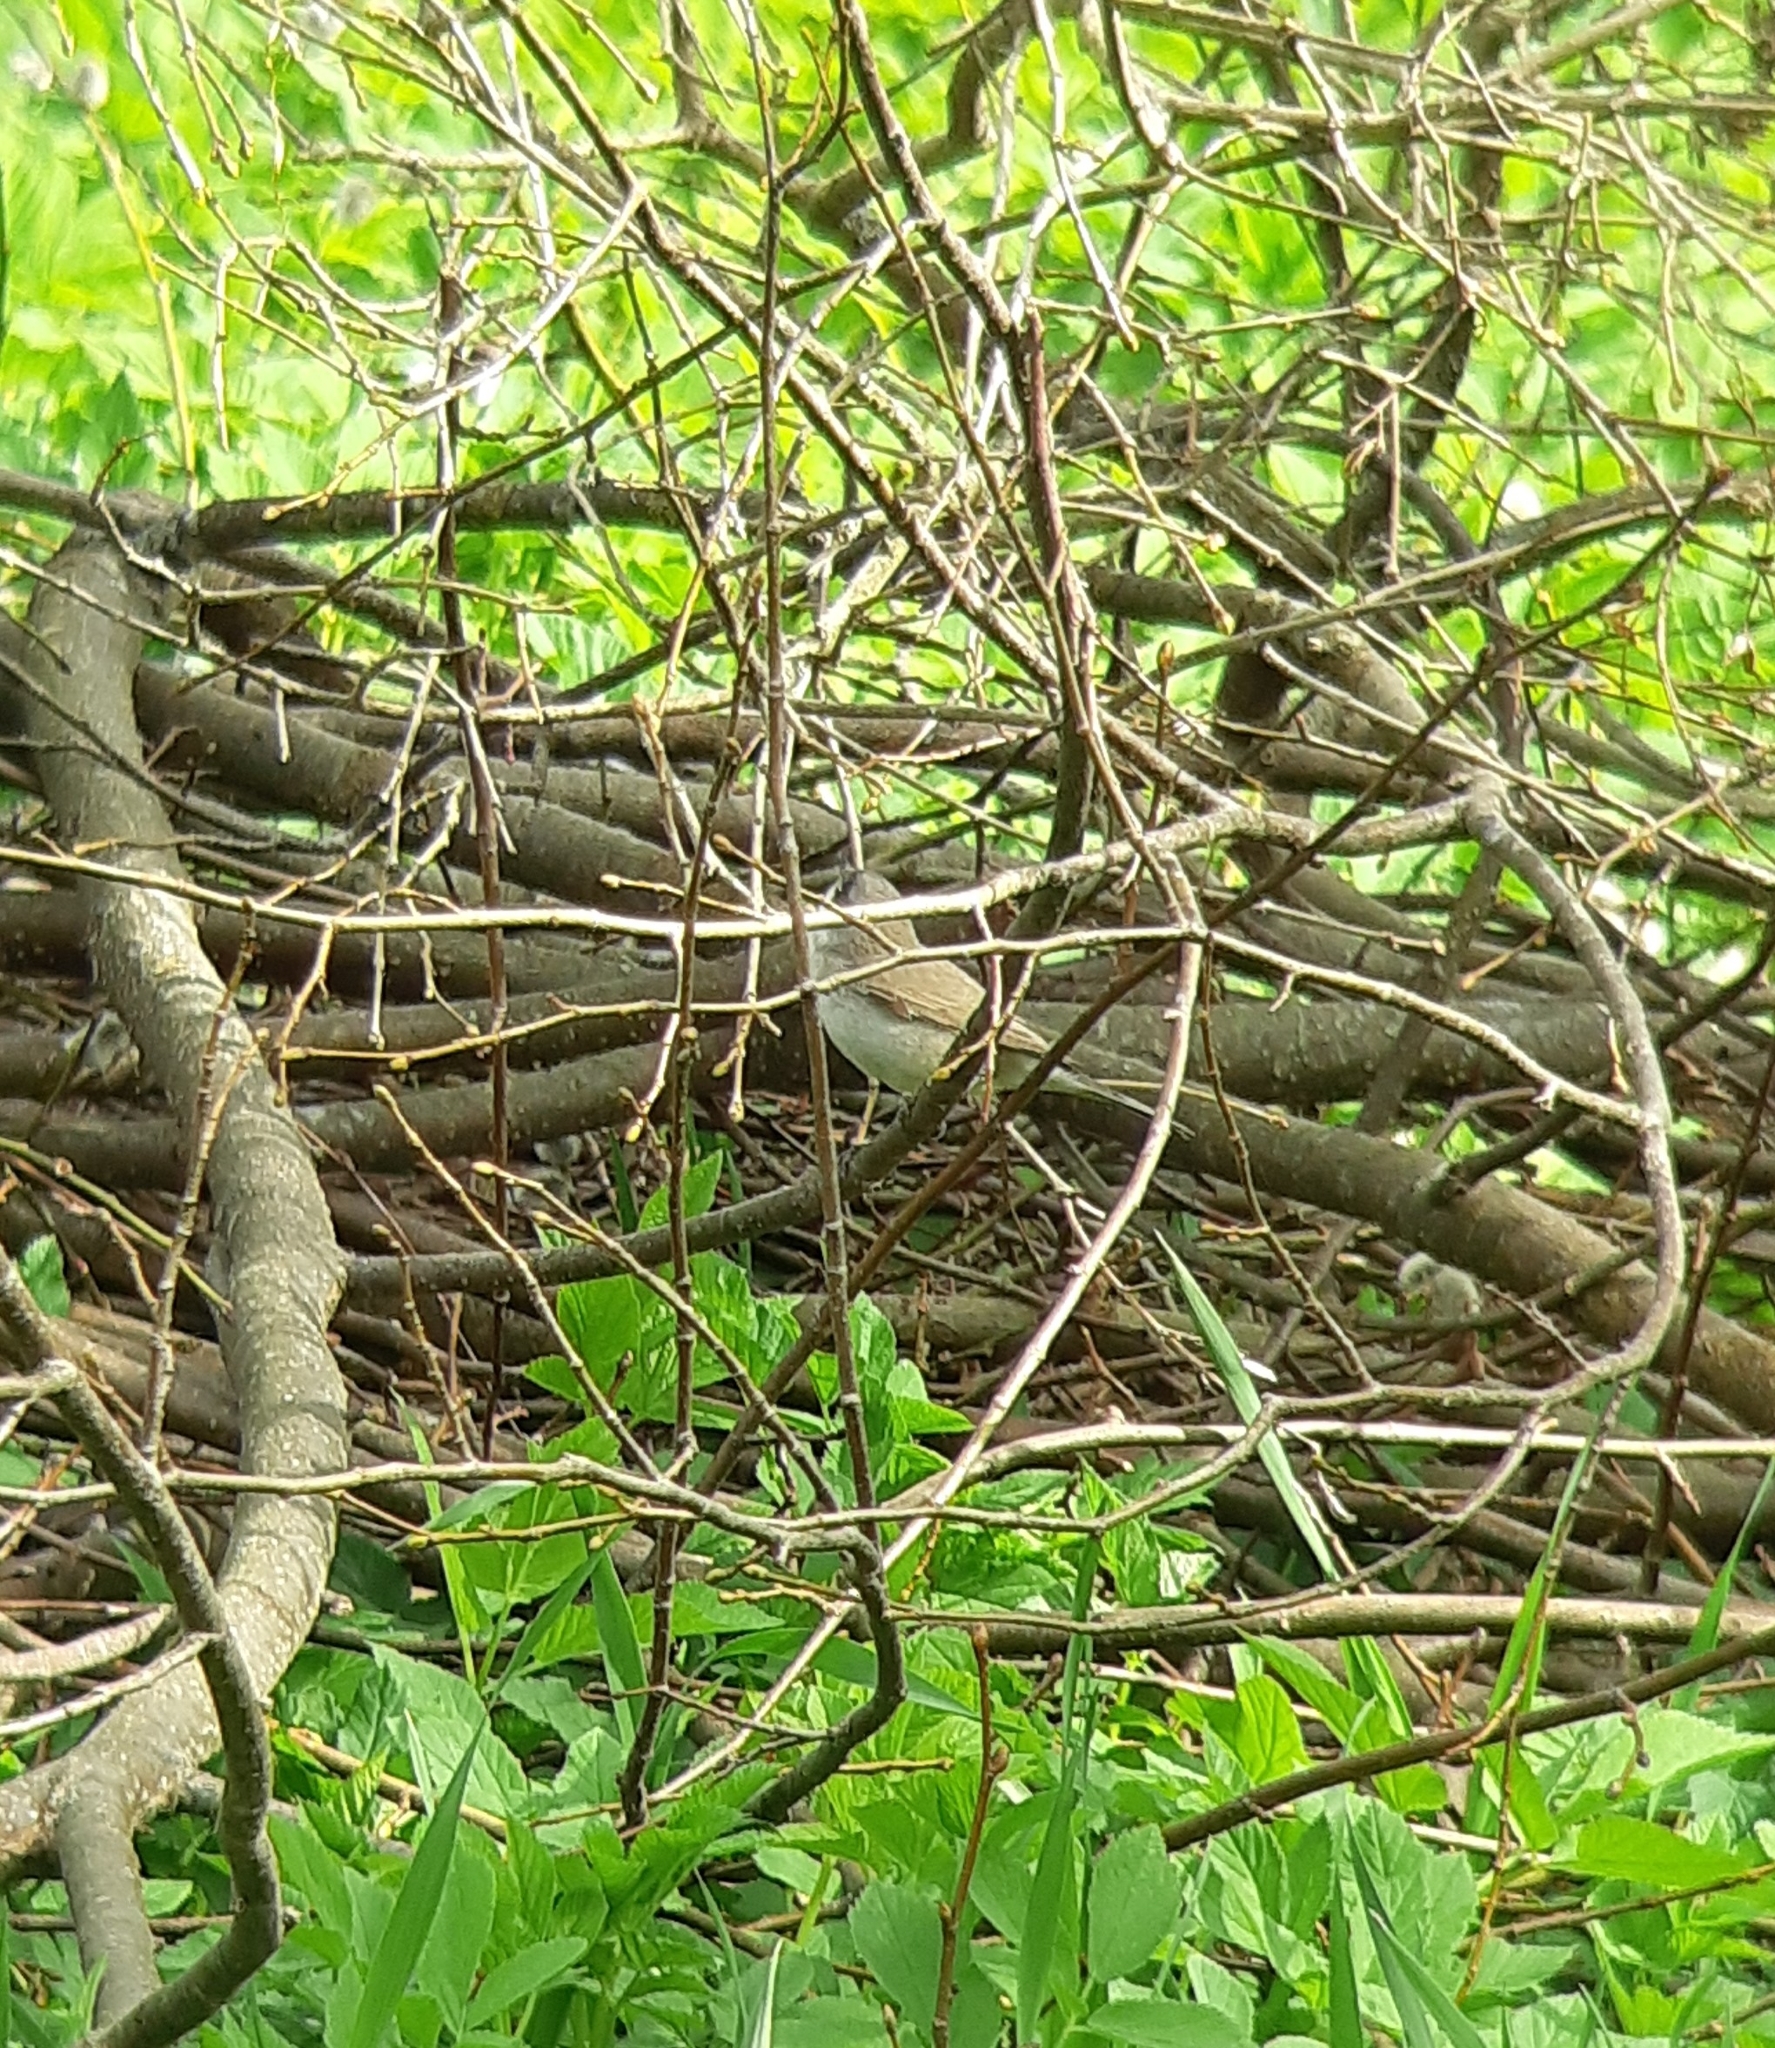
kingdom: Animalia
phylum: Chordata
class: Aves
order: Passeriformes
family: Sylviidae
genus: Sylvia
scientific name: Sylvia curruca
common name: Lesser whitethroat
